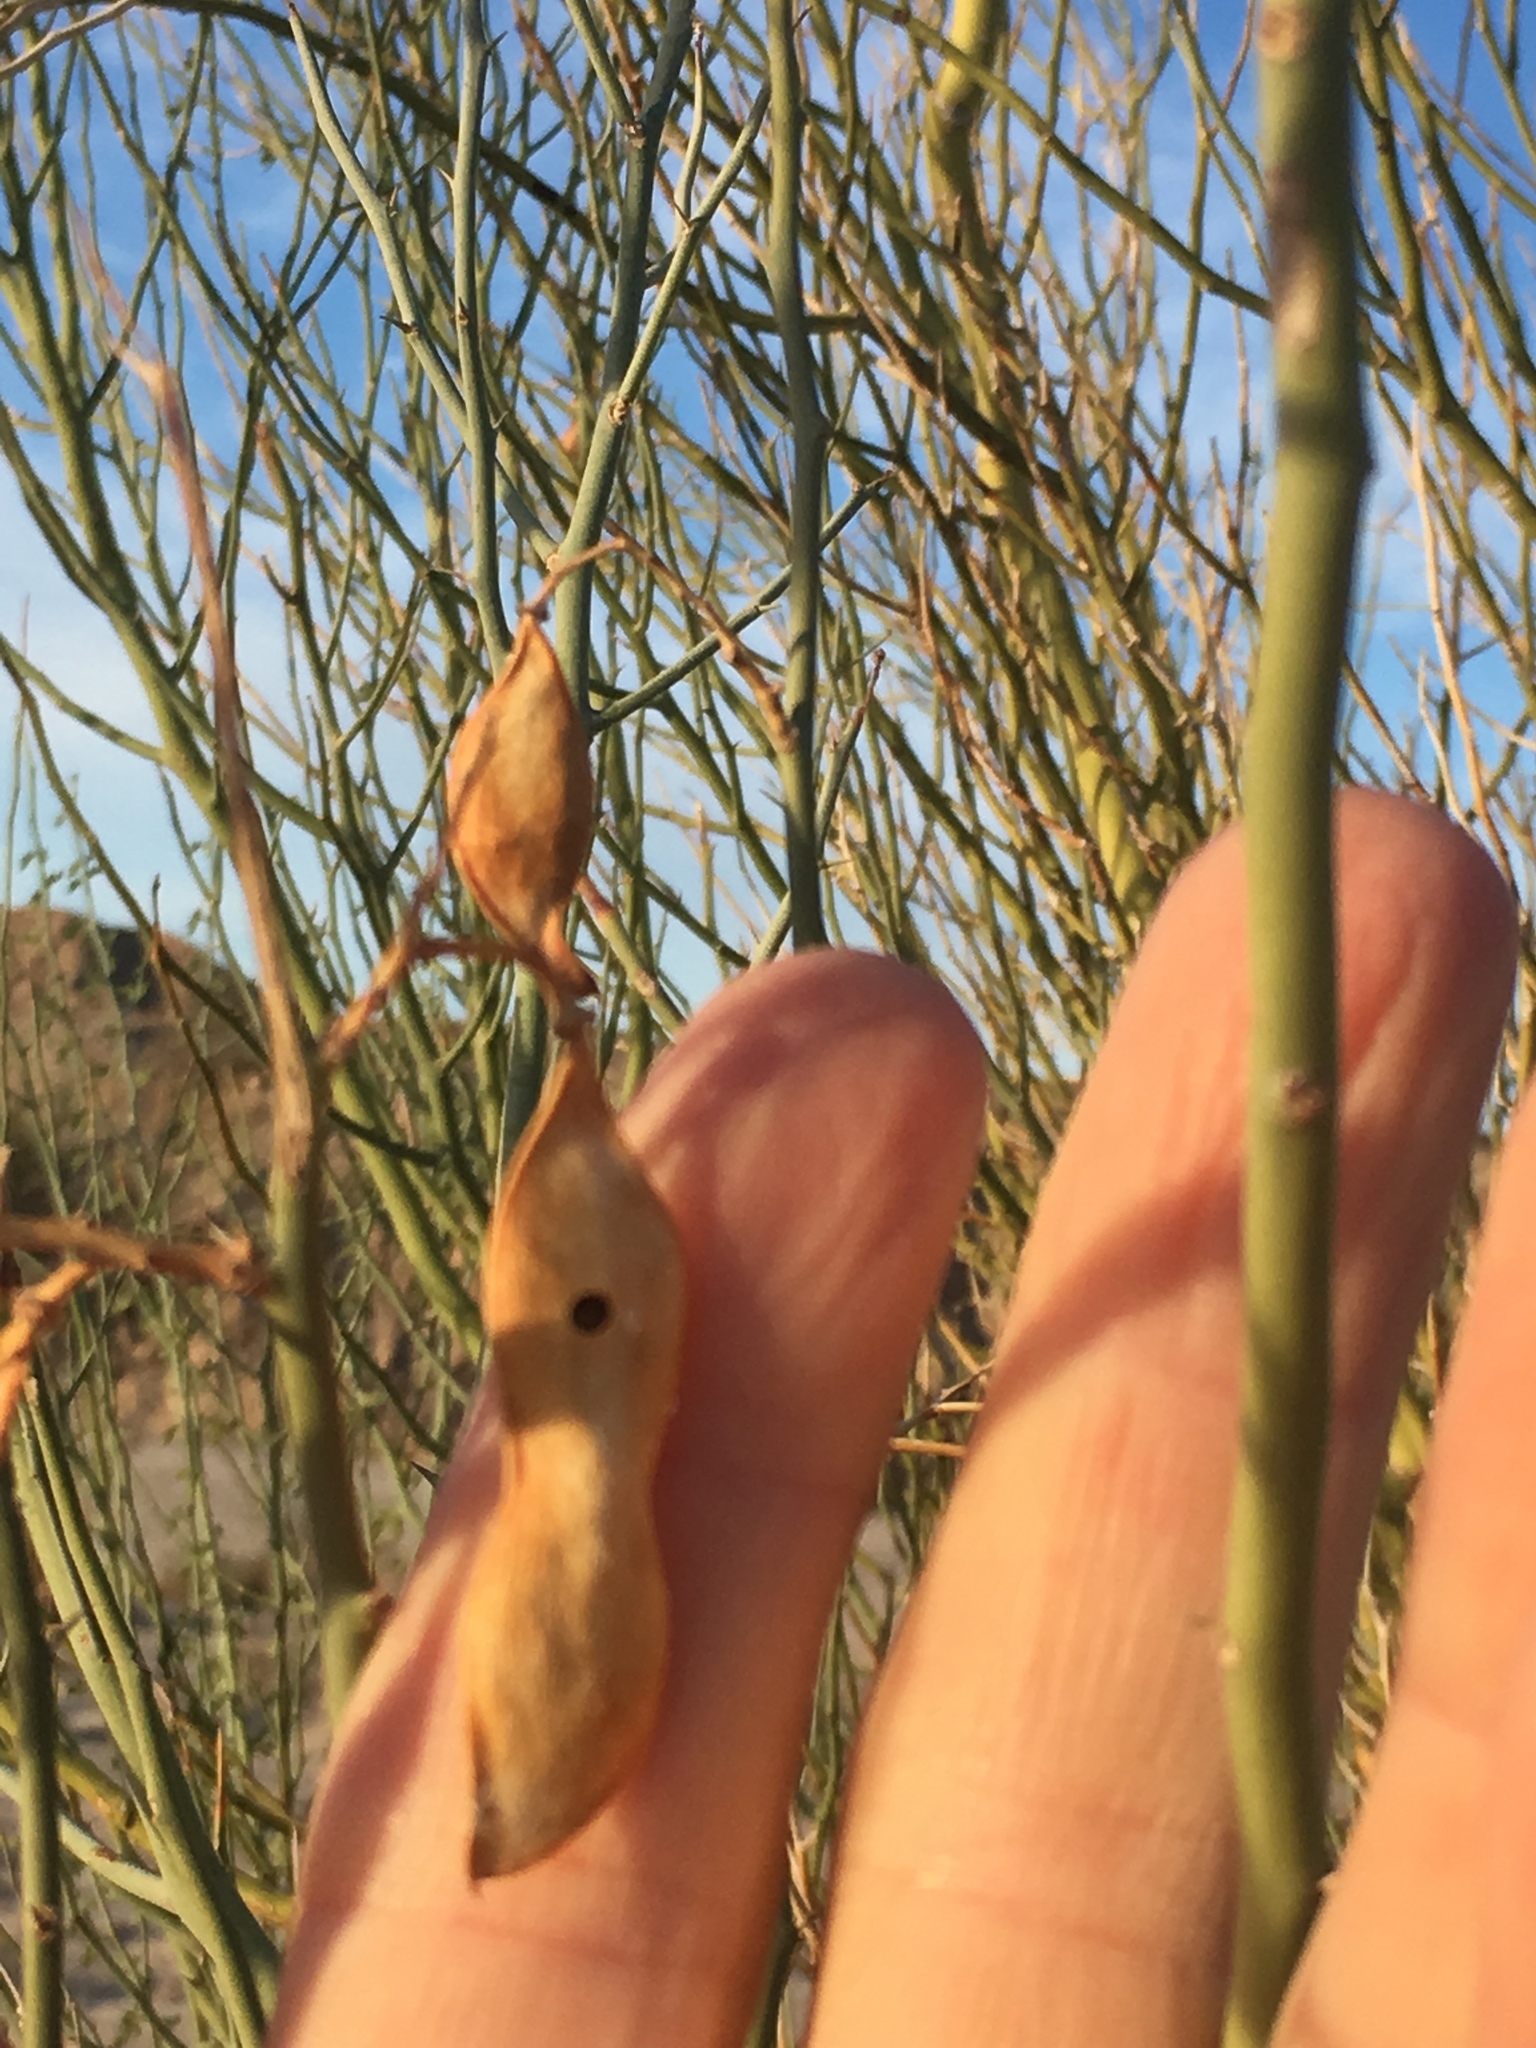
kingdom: Plantae
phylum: Tracheophyta
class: Magnoliopsida
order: Fabales
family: Fabaceae
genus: Parkinsonia
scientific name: Parkinsonia florida
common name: Blue paloverde
